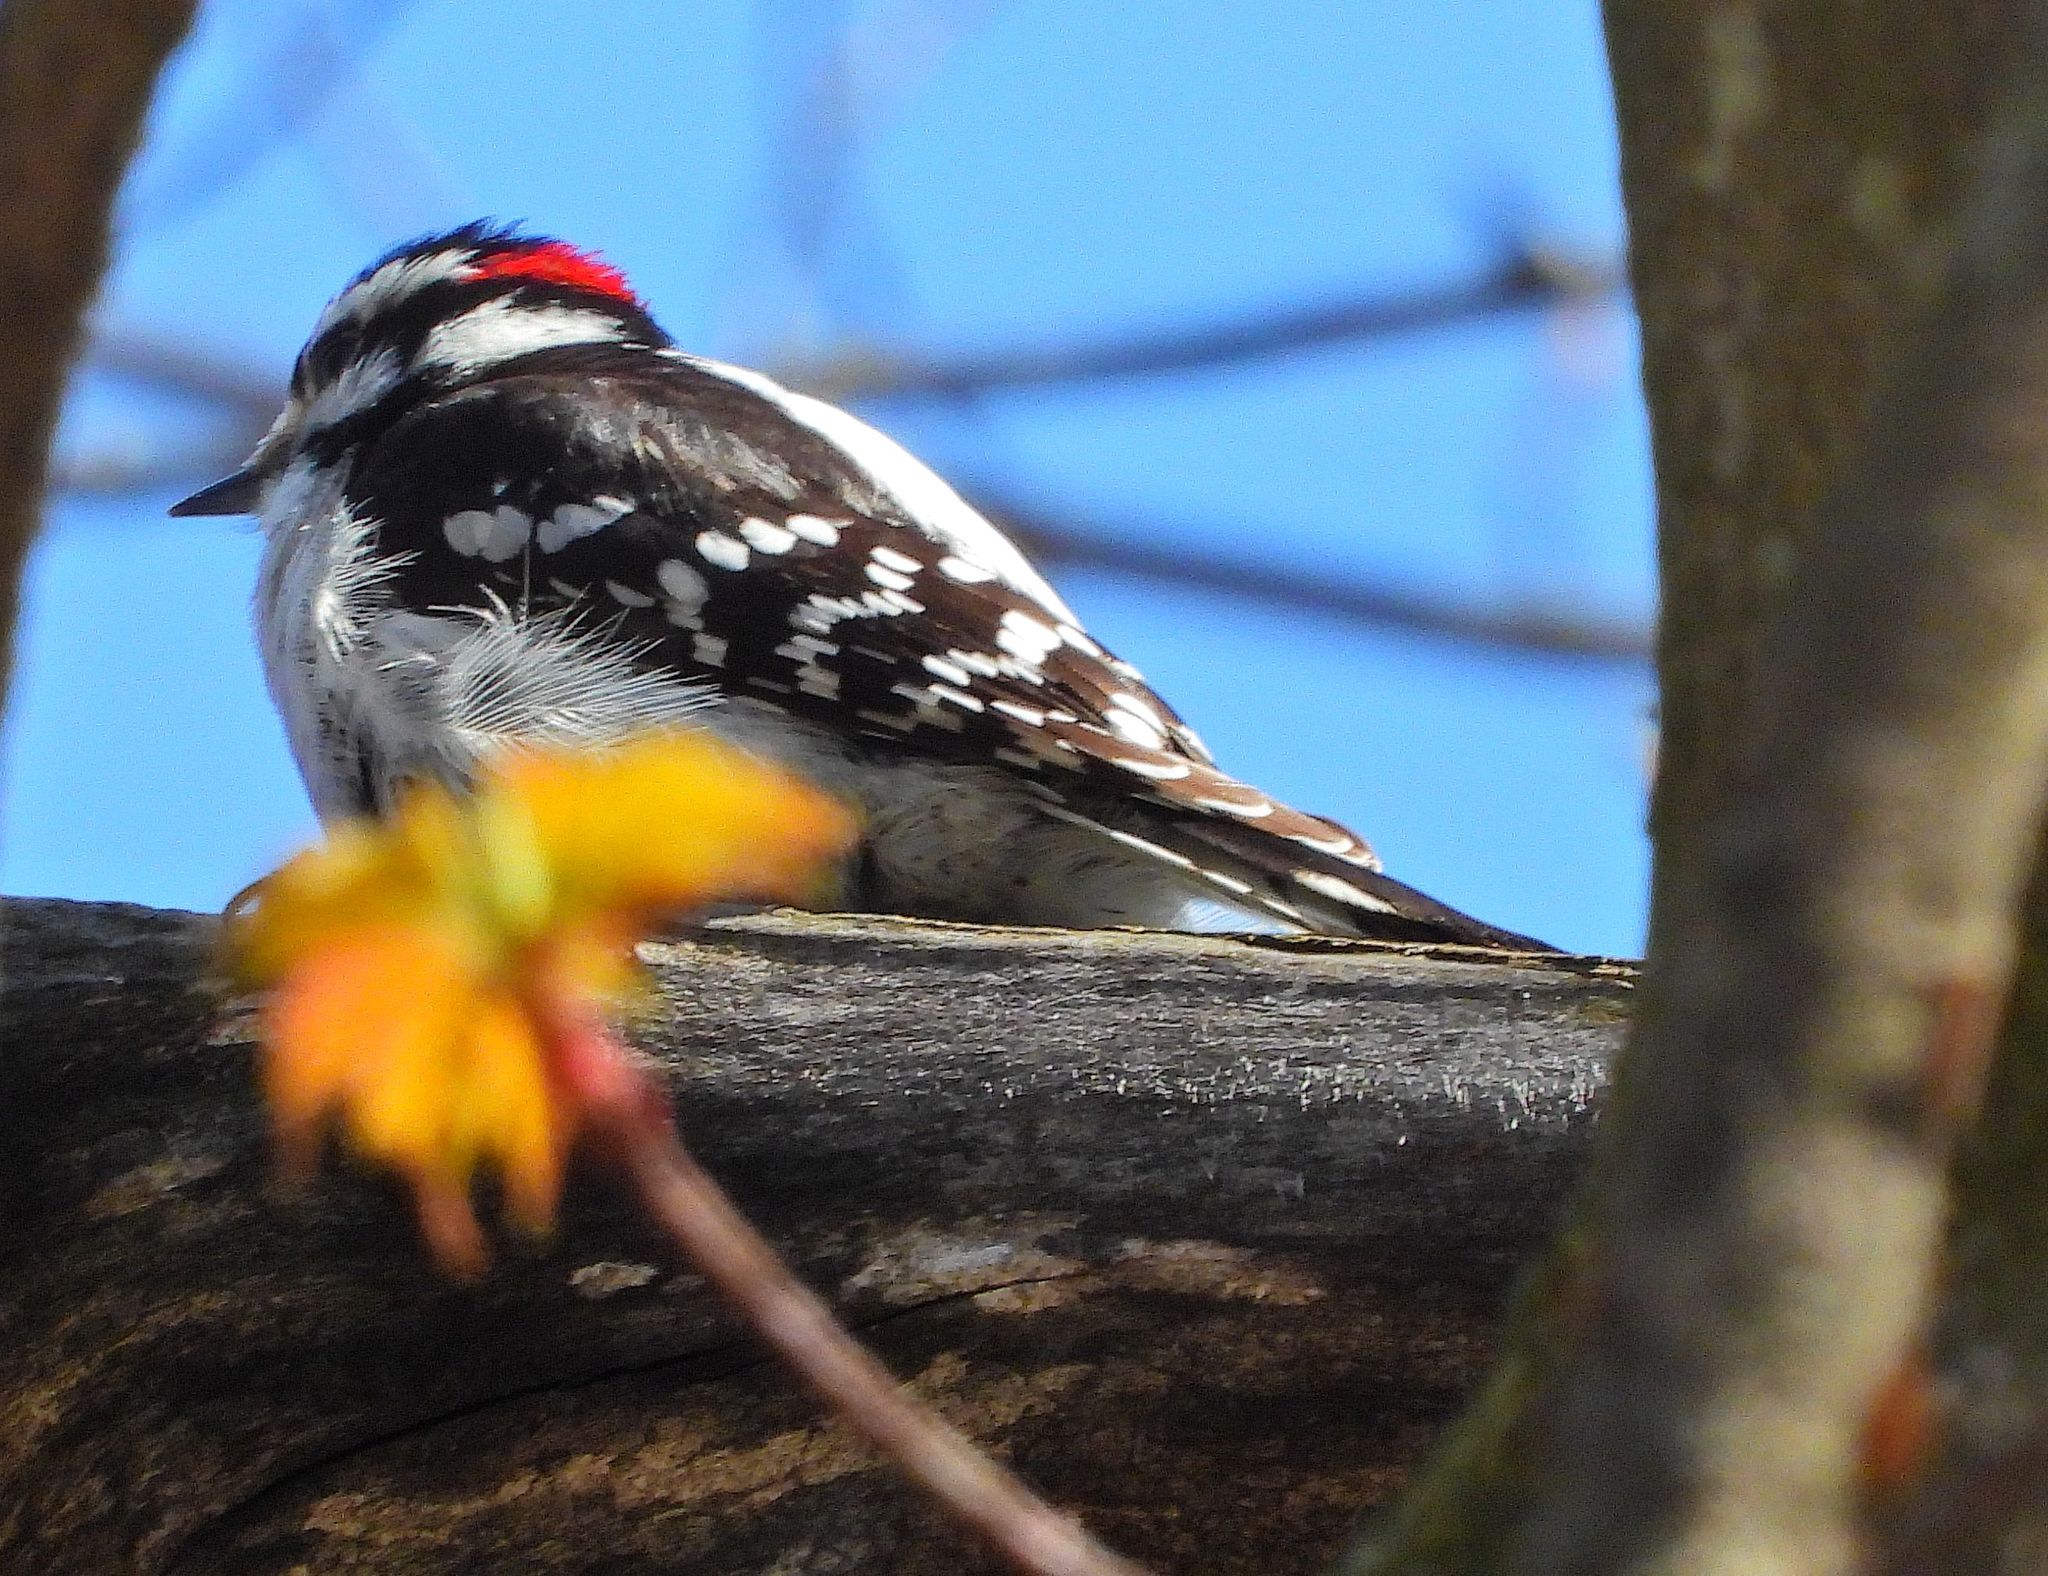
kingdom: Animalia
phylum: Chordata
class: Aves
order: Piciformes
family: Picidae
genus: Dryobates
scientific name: Dryobates pubescens
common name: Downy woodpecker
